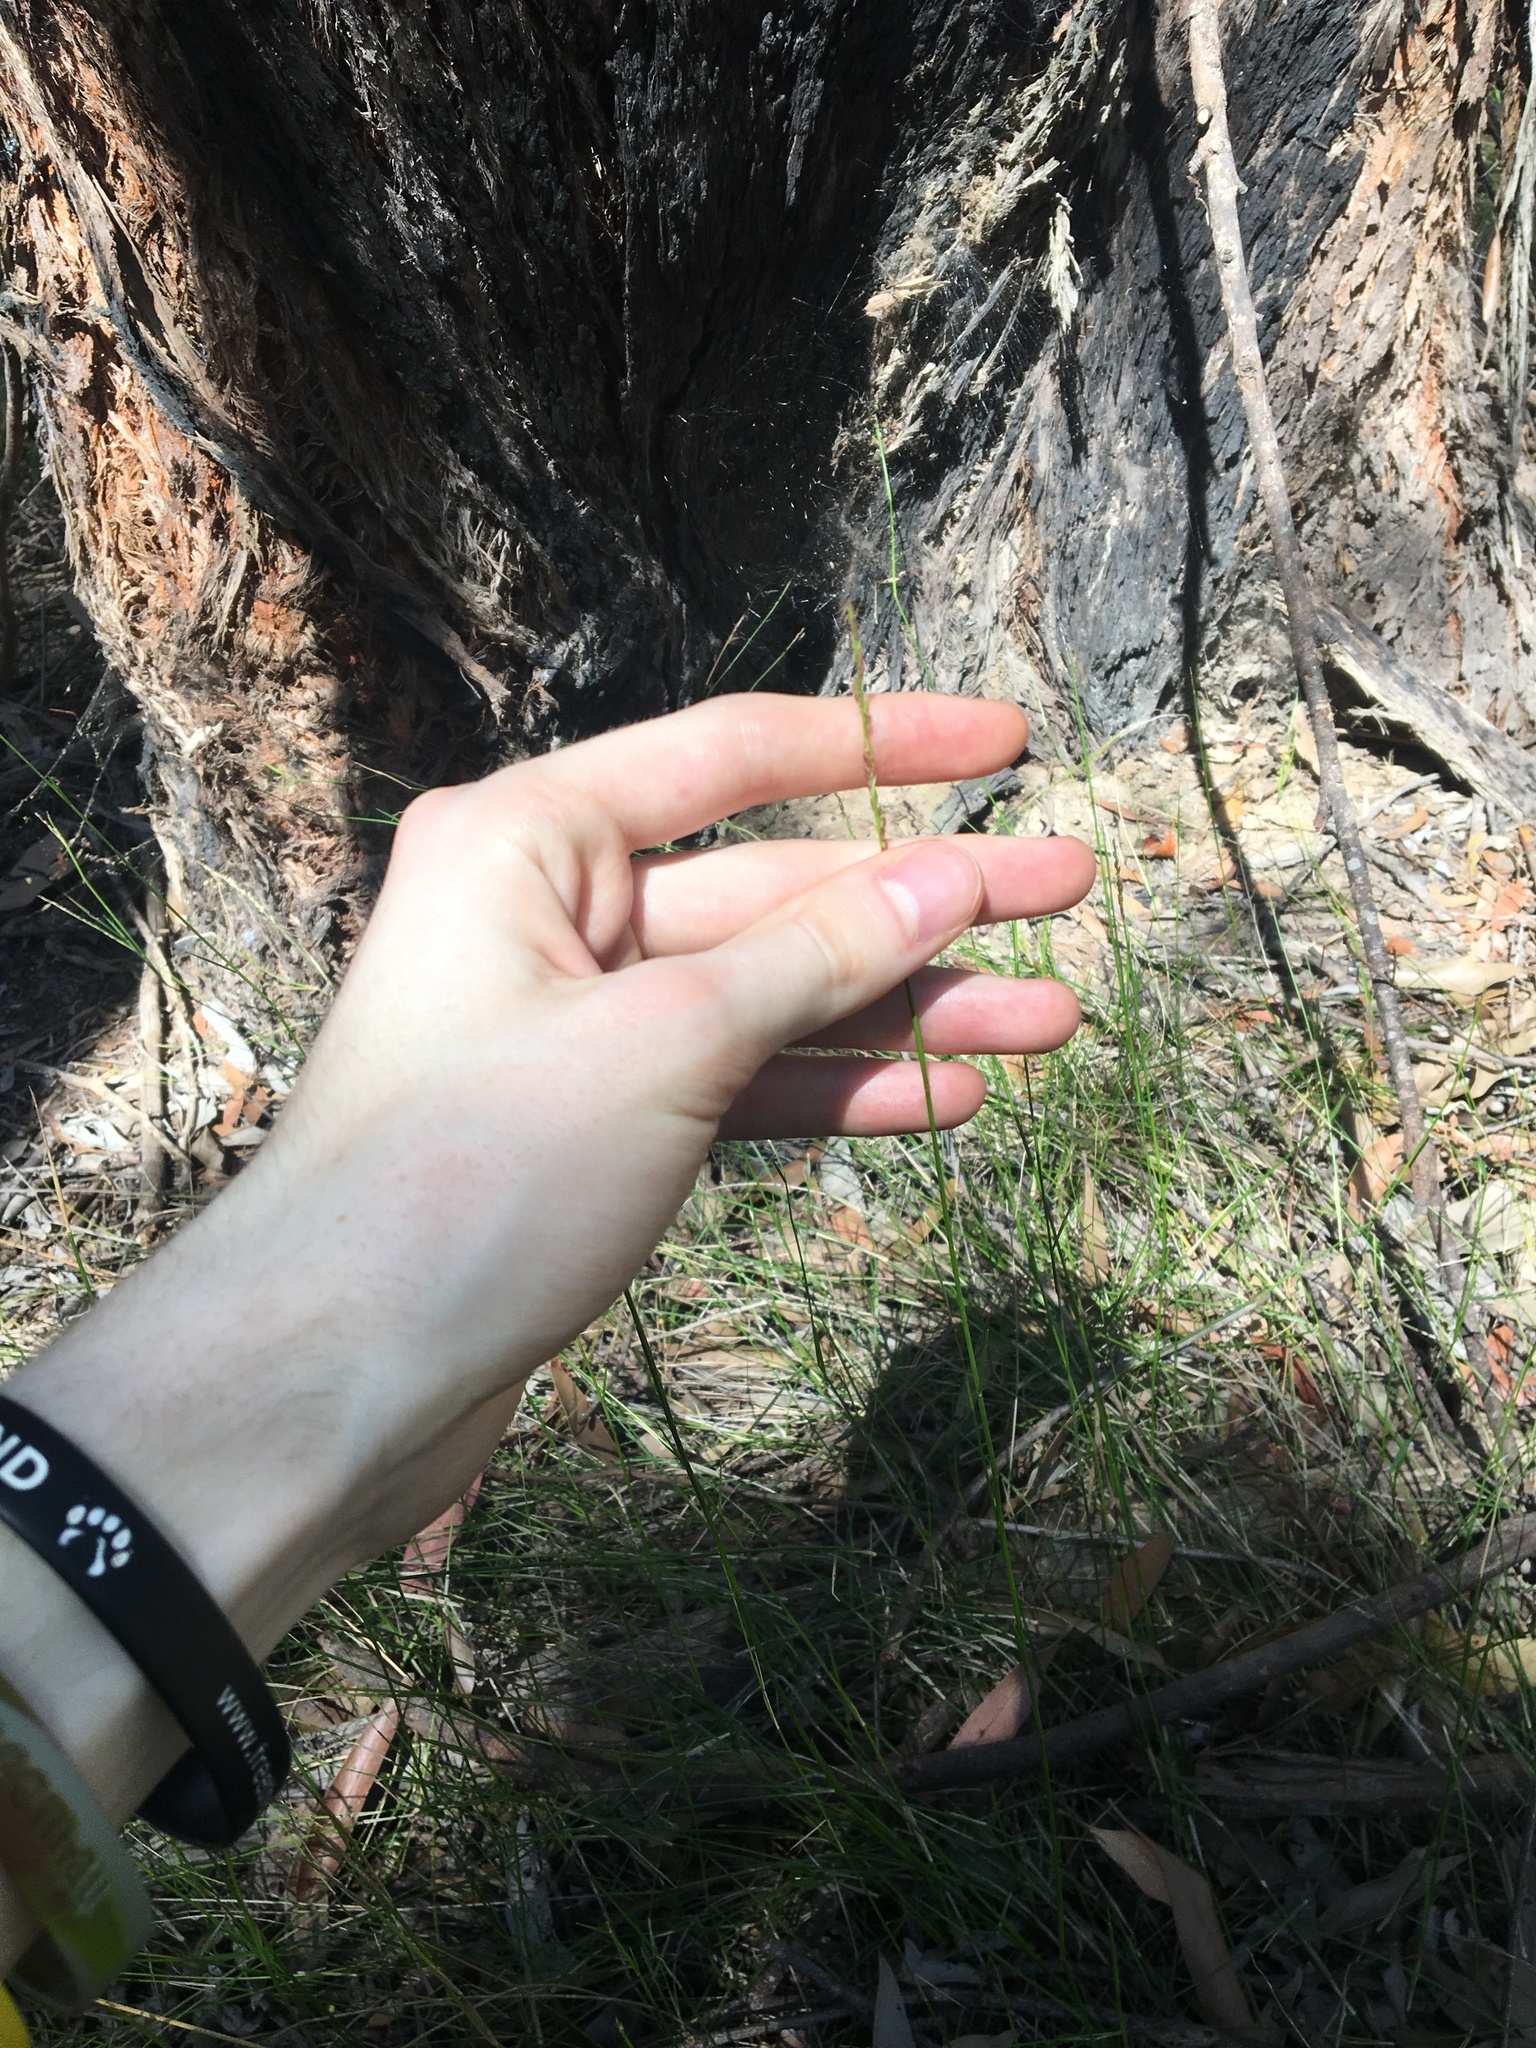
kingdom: Plantae
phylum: Tracheophyta
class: Liliopsida
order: Poales
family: Poaceae
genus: Entolasia
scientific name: Entolasia stricta
